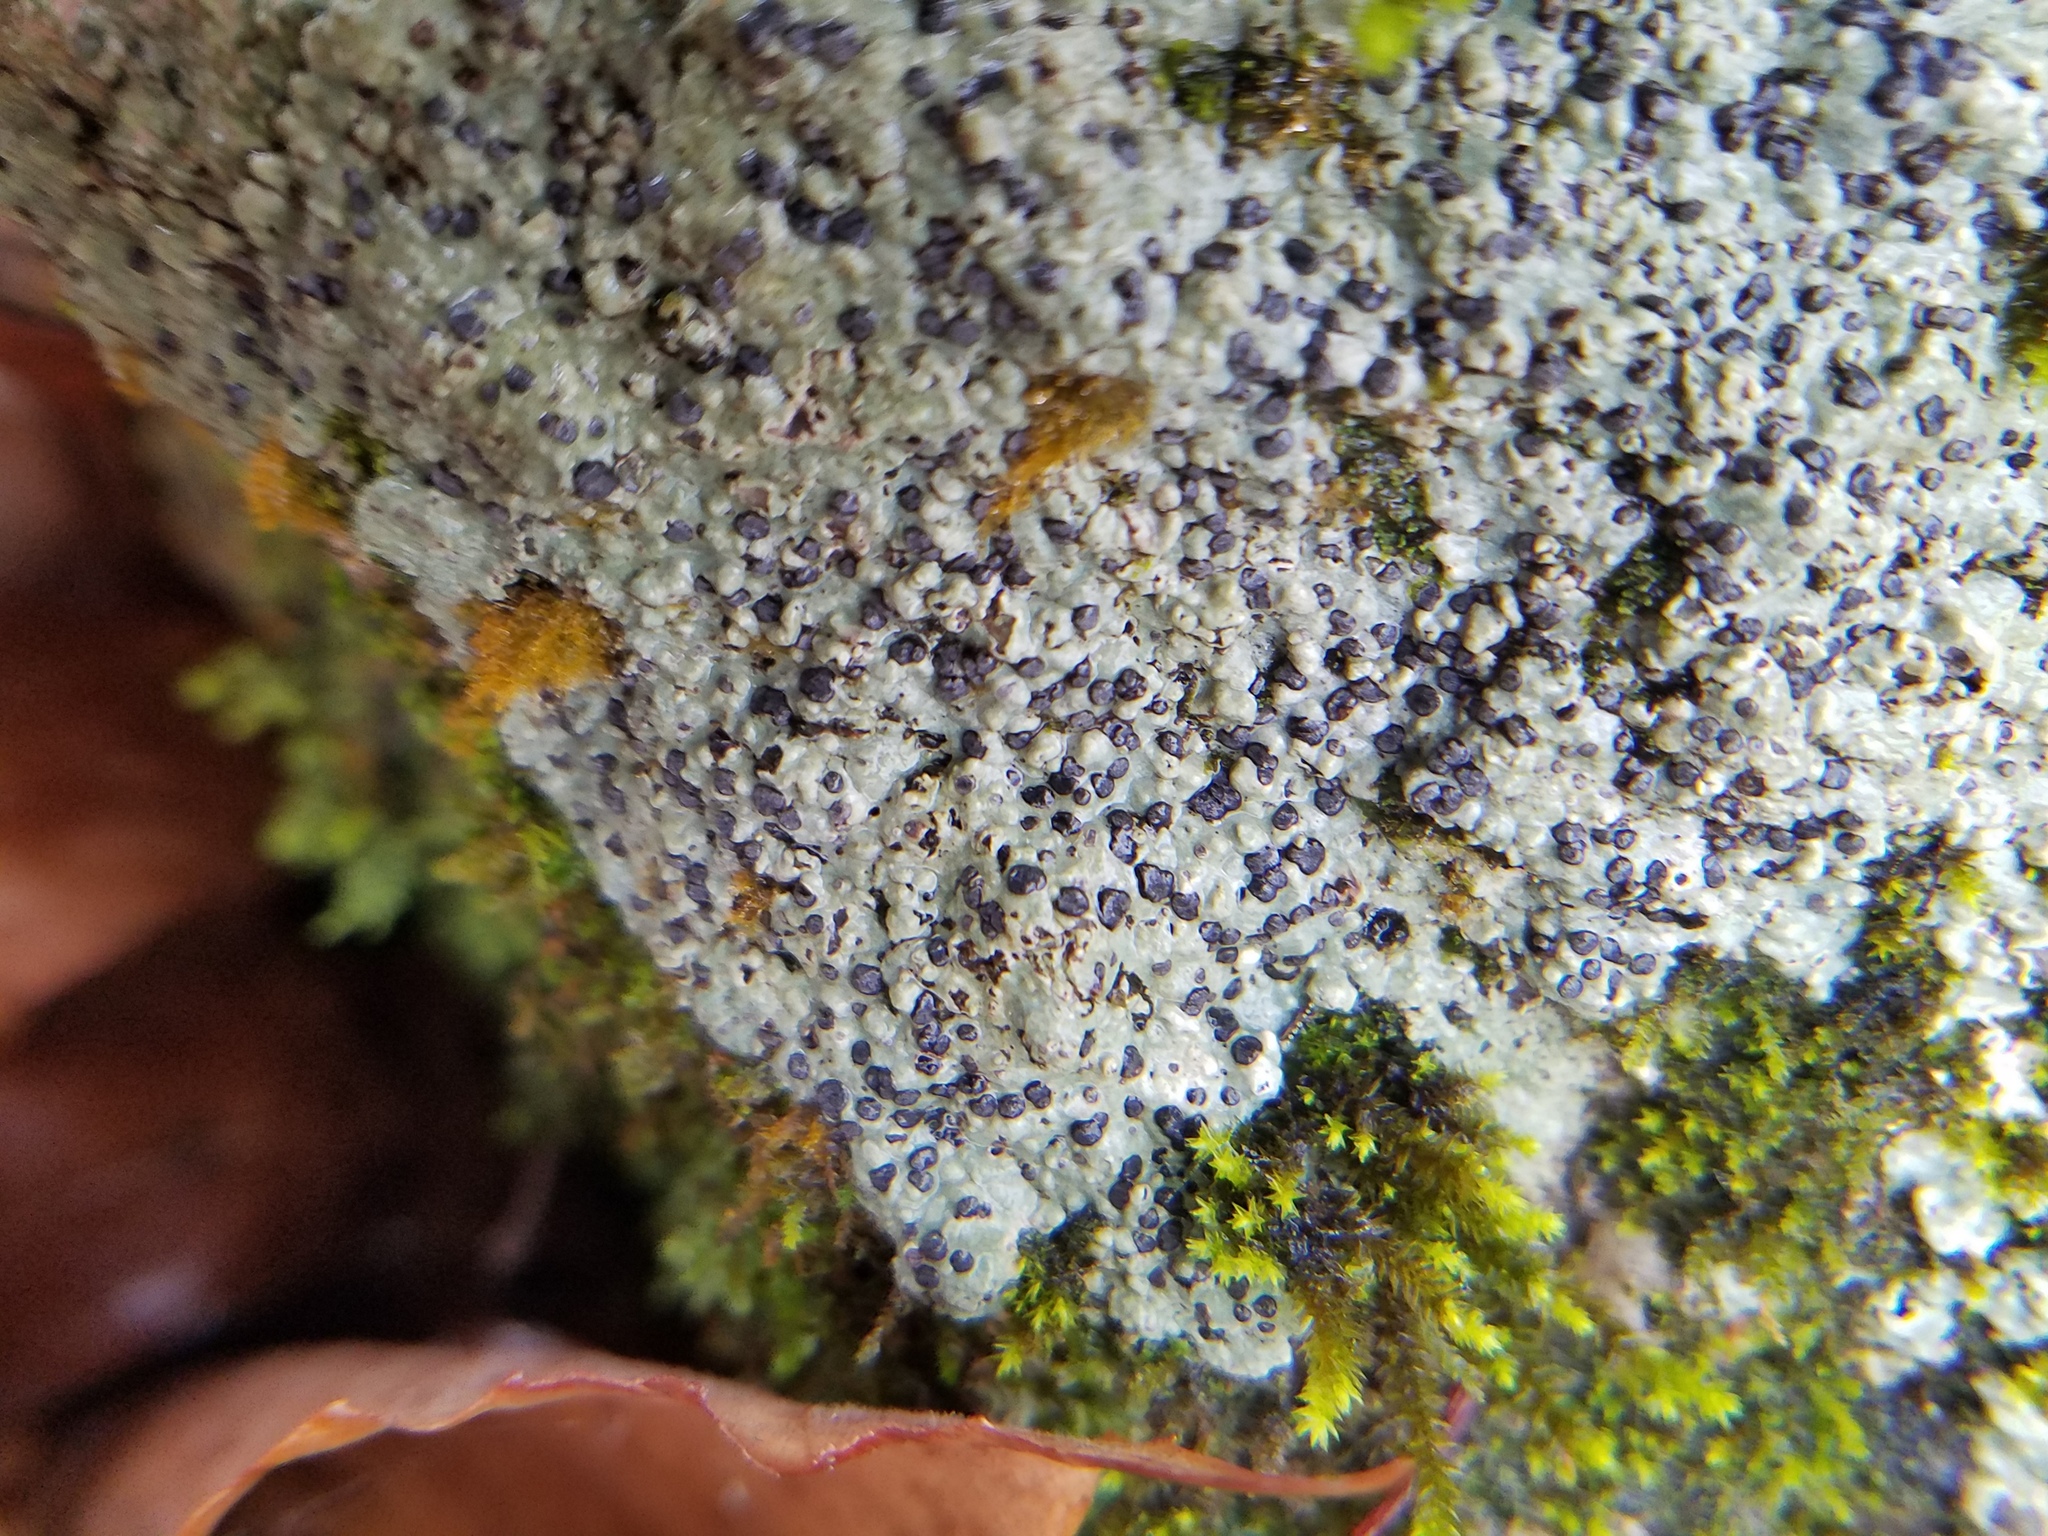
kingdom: Fungi
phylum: Ascomycota
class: Lecanoromycetes
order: Lecideales
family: Lecideaceae
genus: Porpidia
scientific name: Porpidia albocaerulescens
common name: Smokey-eyed boulder lichen
